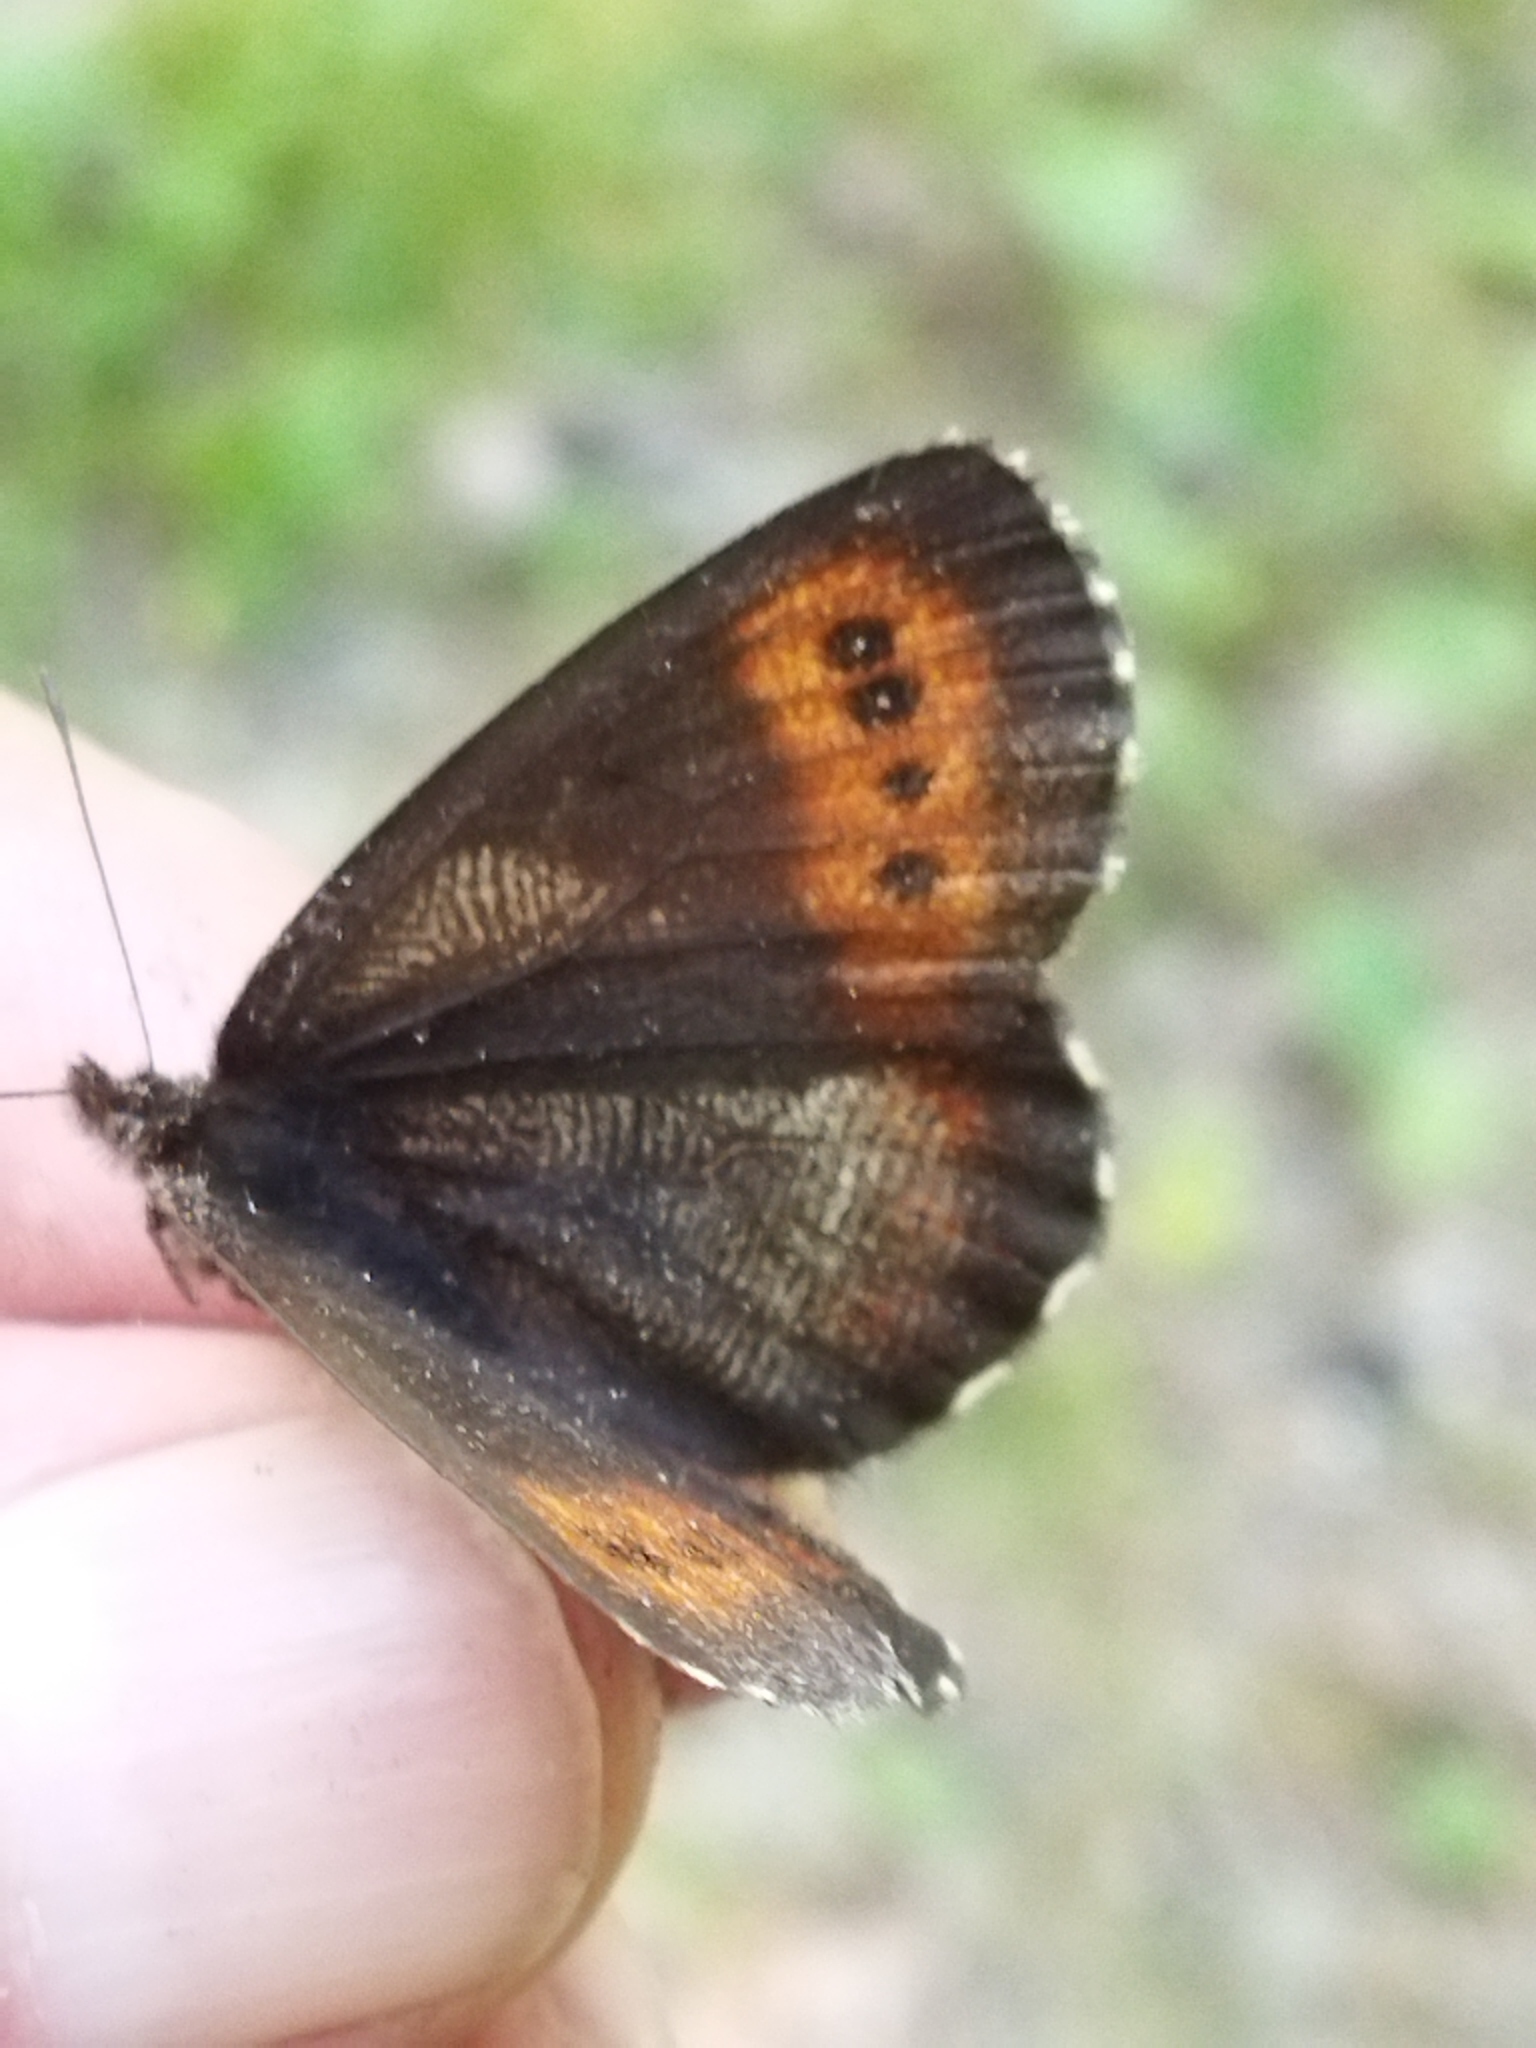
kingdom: Animalia
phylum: Arthropoda
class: Insecta
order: Lepidoptera
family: Nymphalidae
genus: Erebia
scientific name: Erebia euryale
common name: Large ringlet
